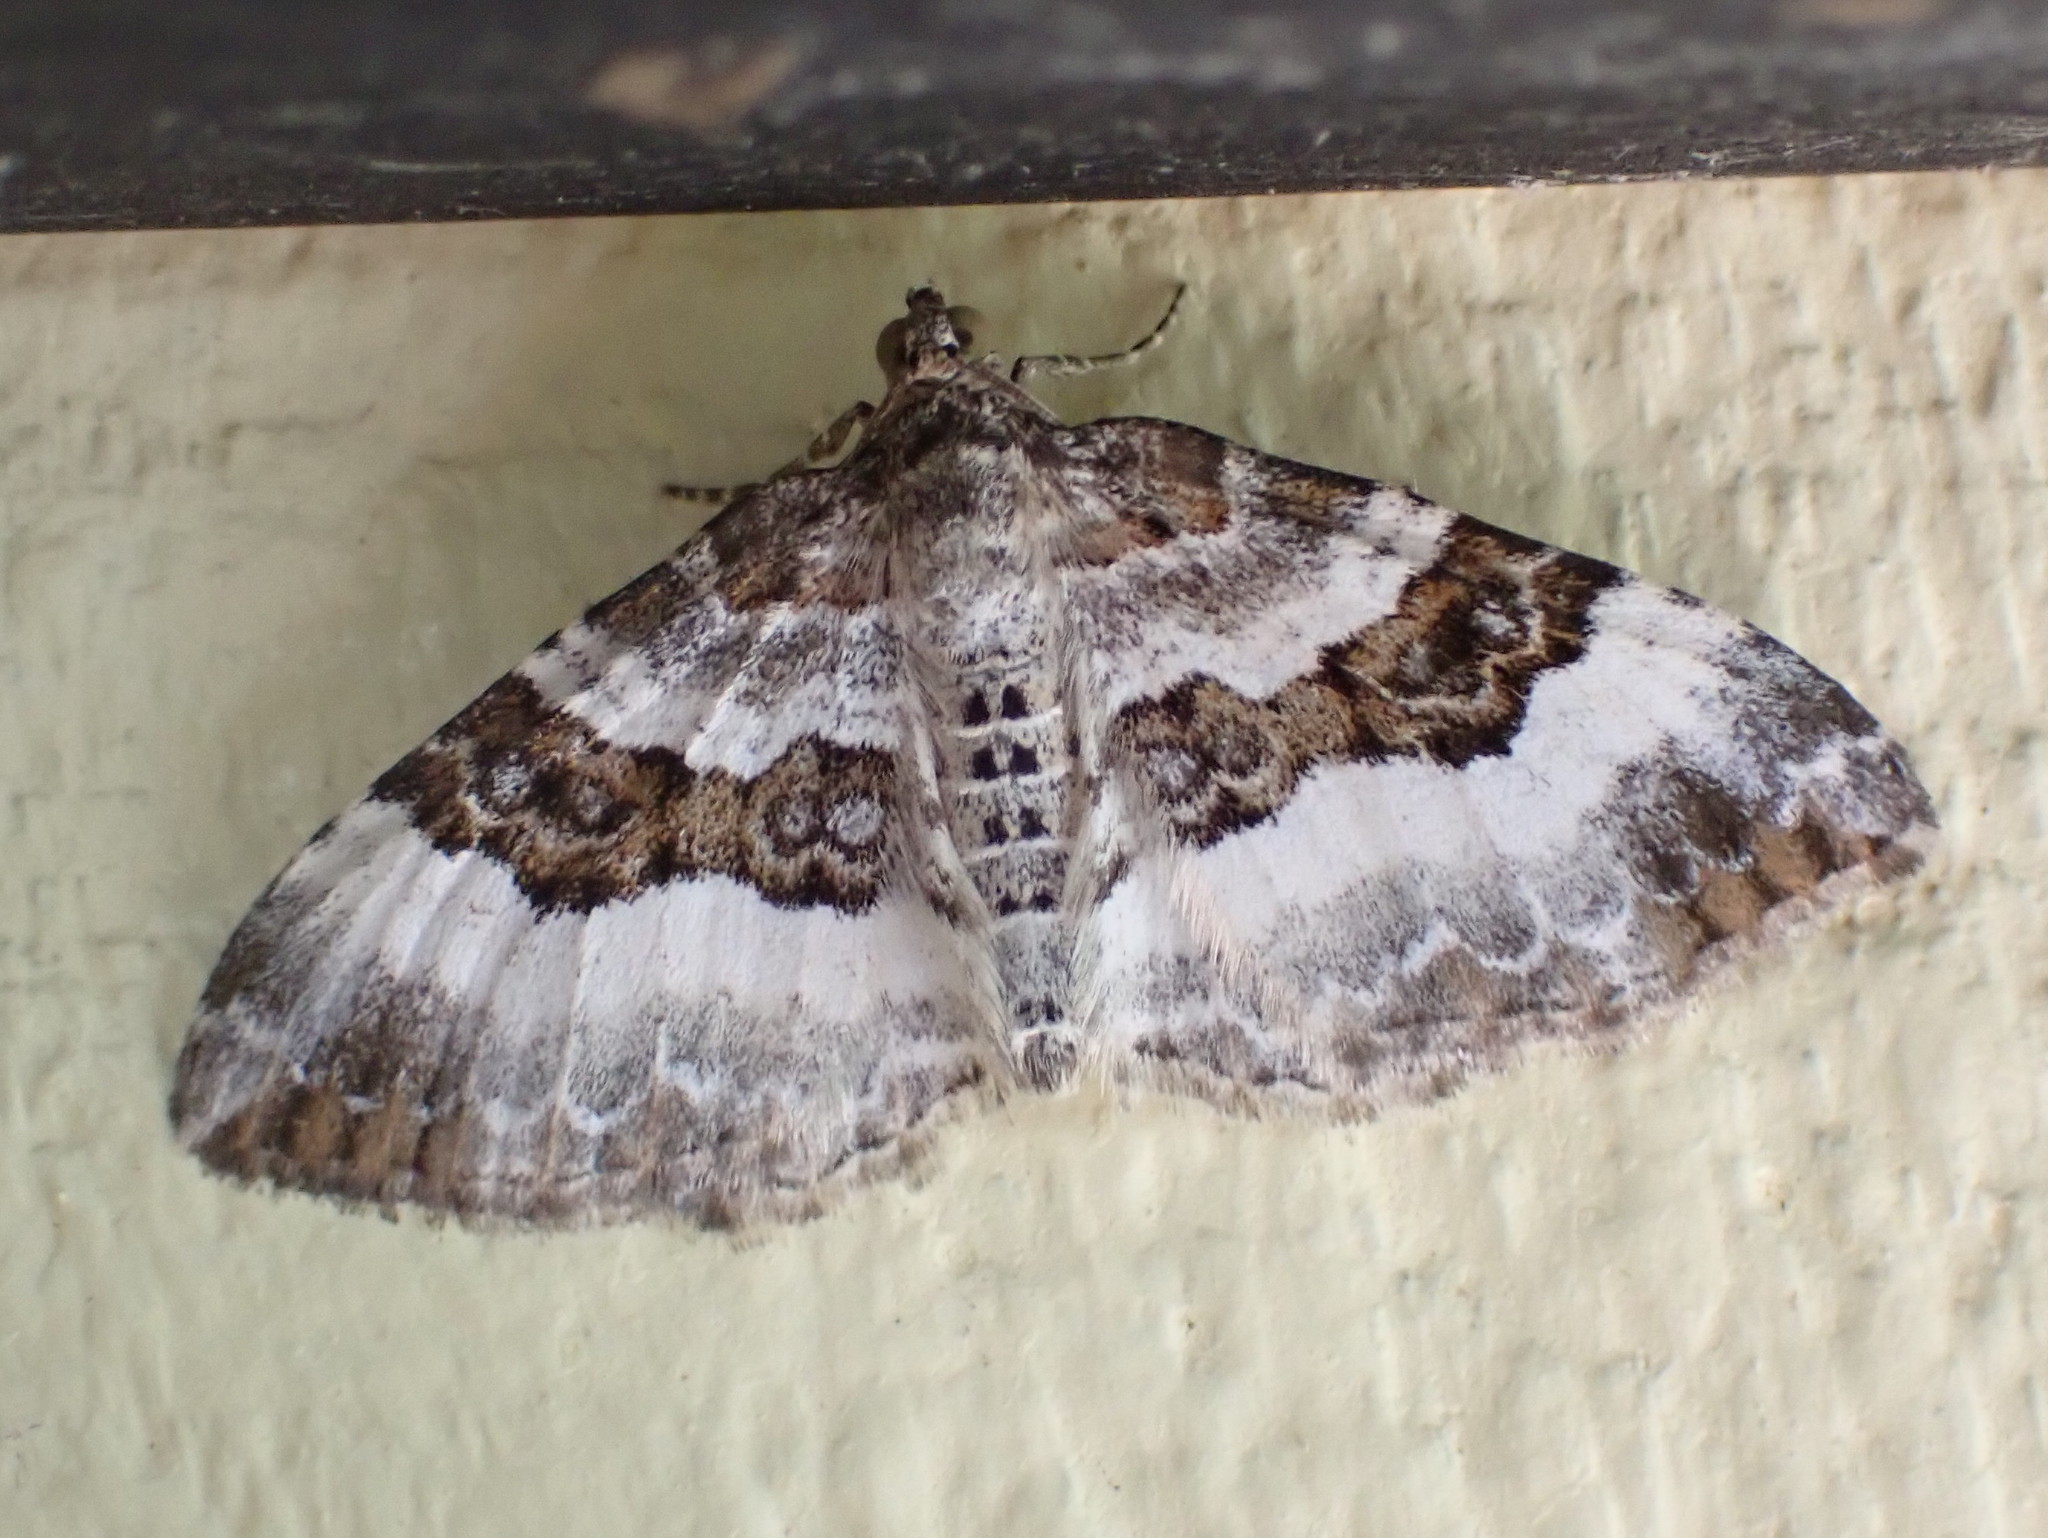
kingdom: Animalia
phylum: Arthropoda
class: Insecta
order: Lepidoptera
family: Geometridae
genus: Epirrhoe
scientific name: Epirrhoe alternata
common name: Common carpet
